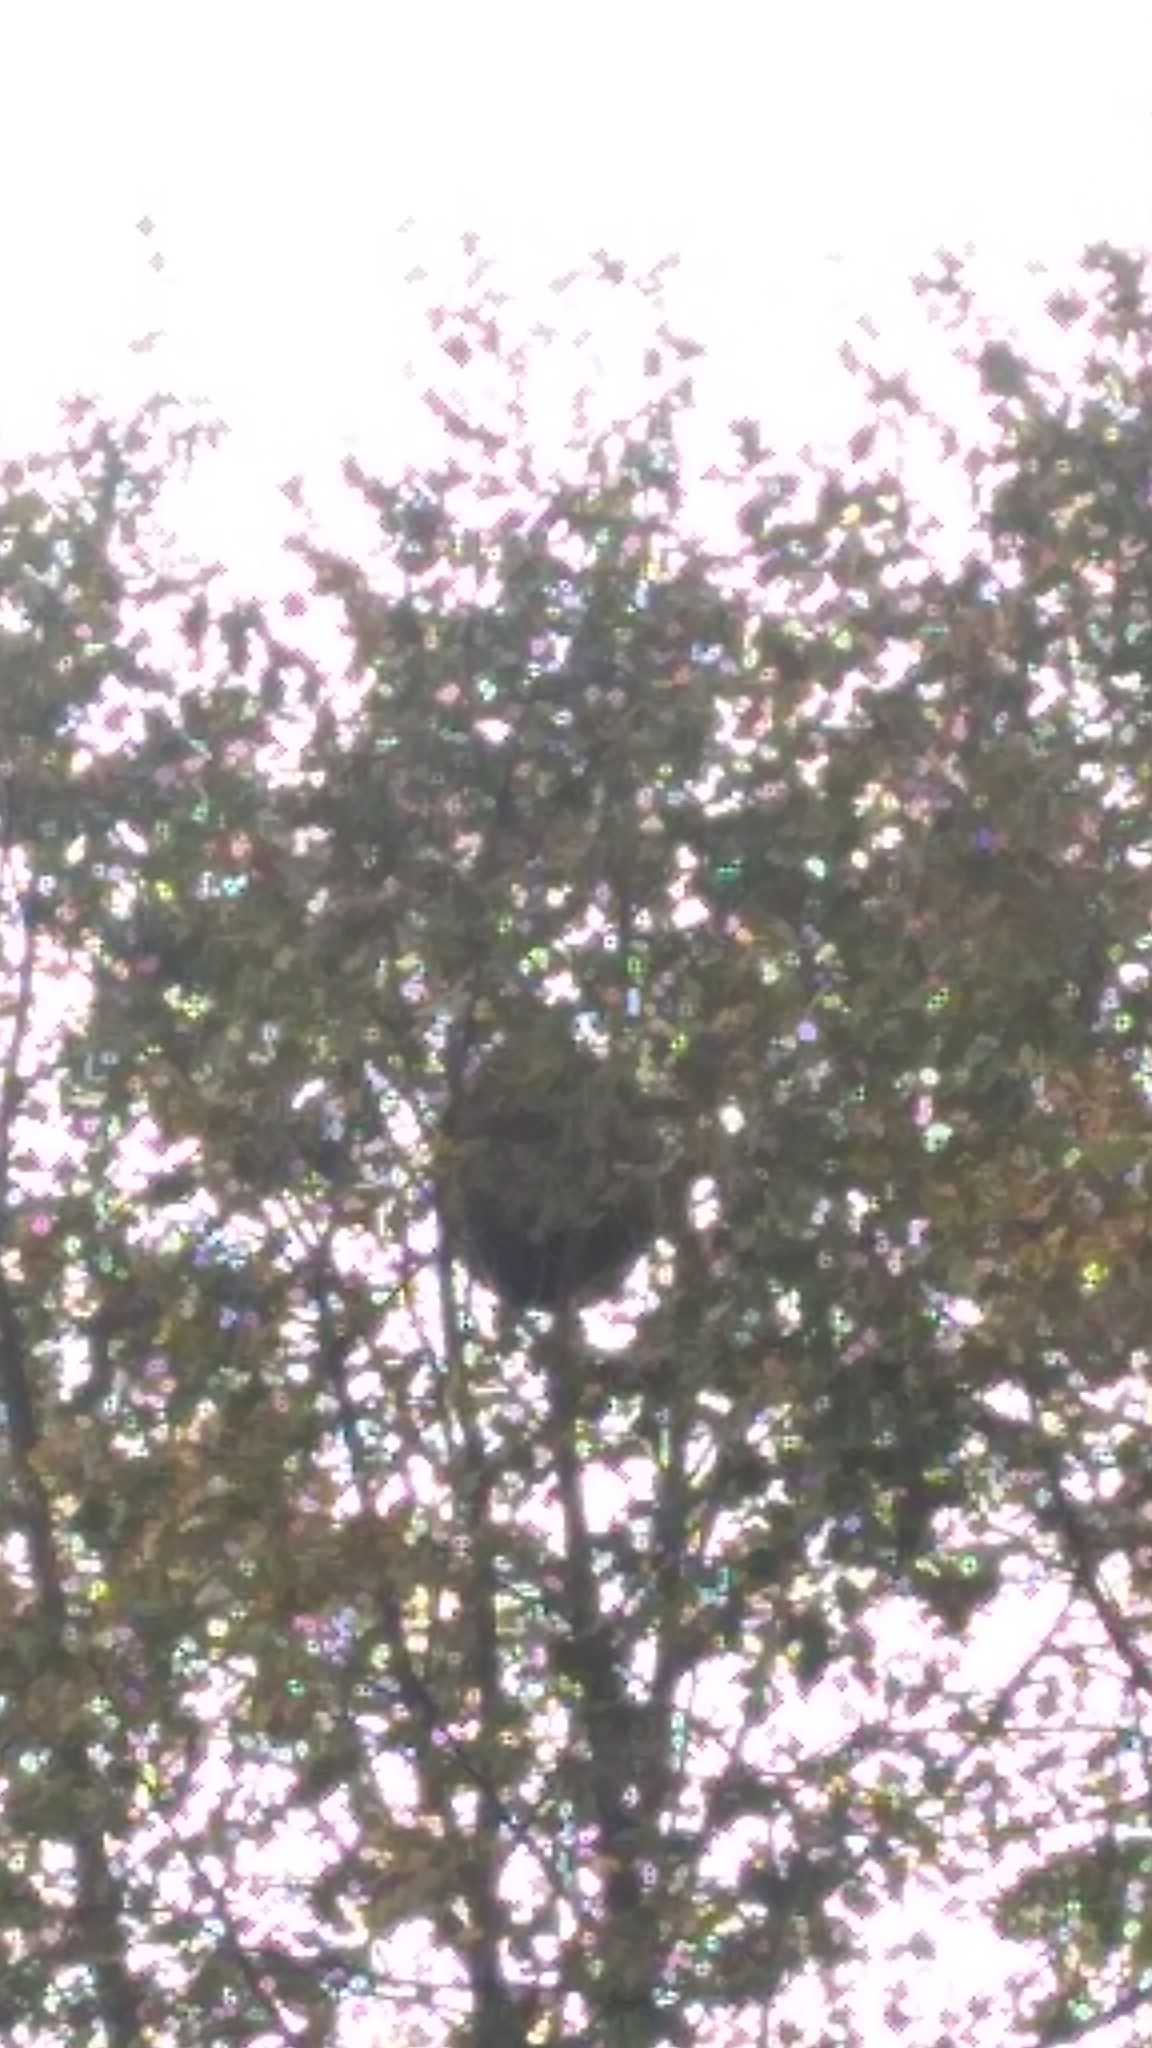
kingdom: Animalia
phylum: Arthropoda
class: Insecta
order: Hymenoptera
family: Vespidae
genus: Vespa
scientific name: Vespa velutina
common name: Asian hornet
